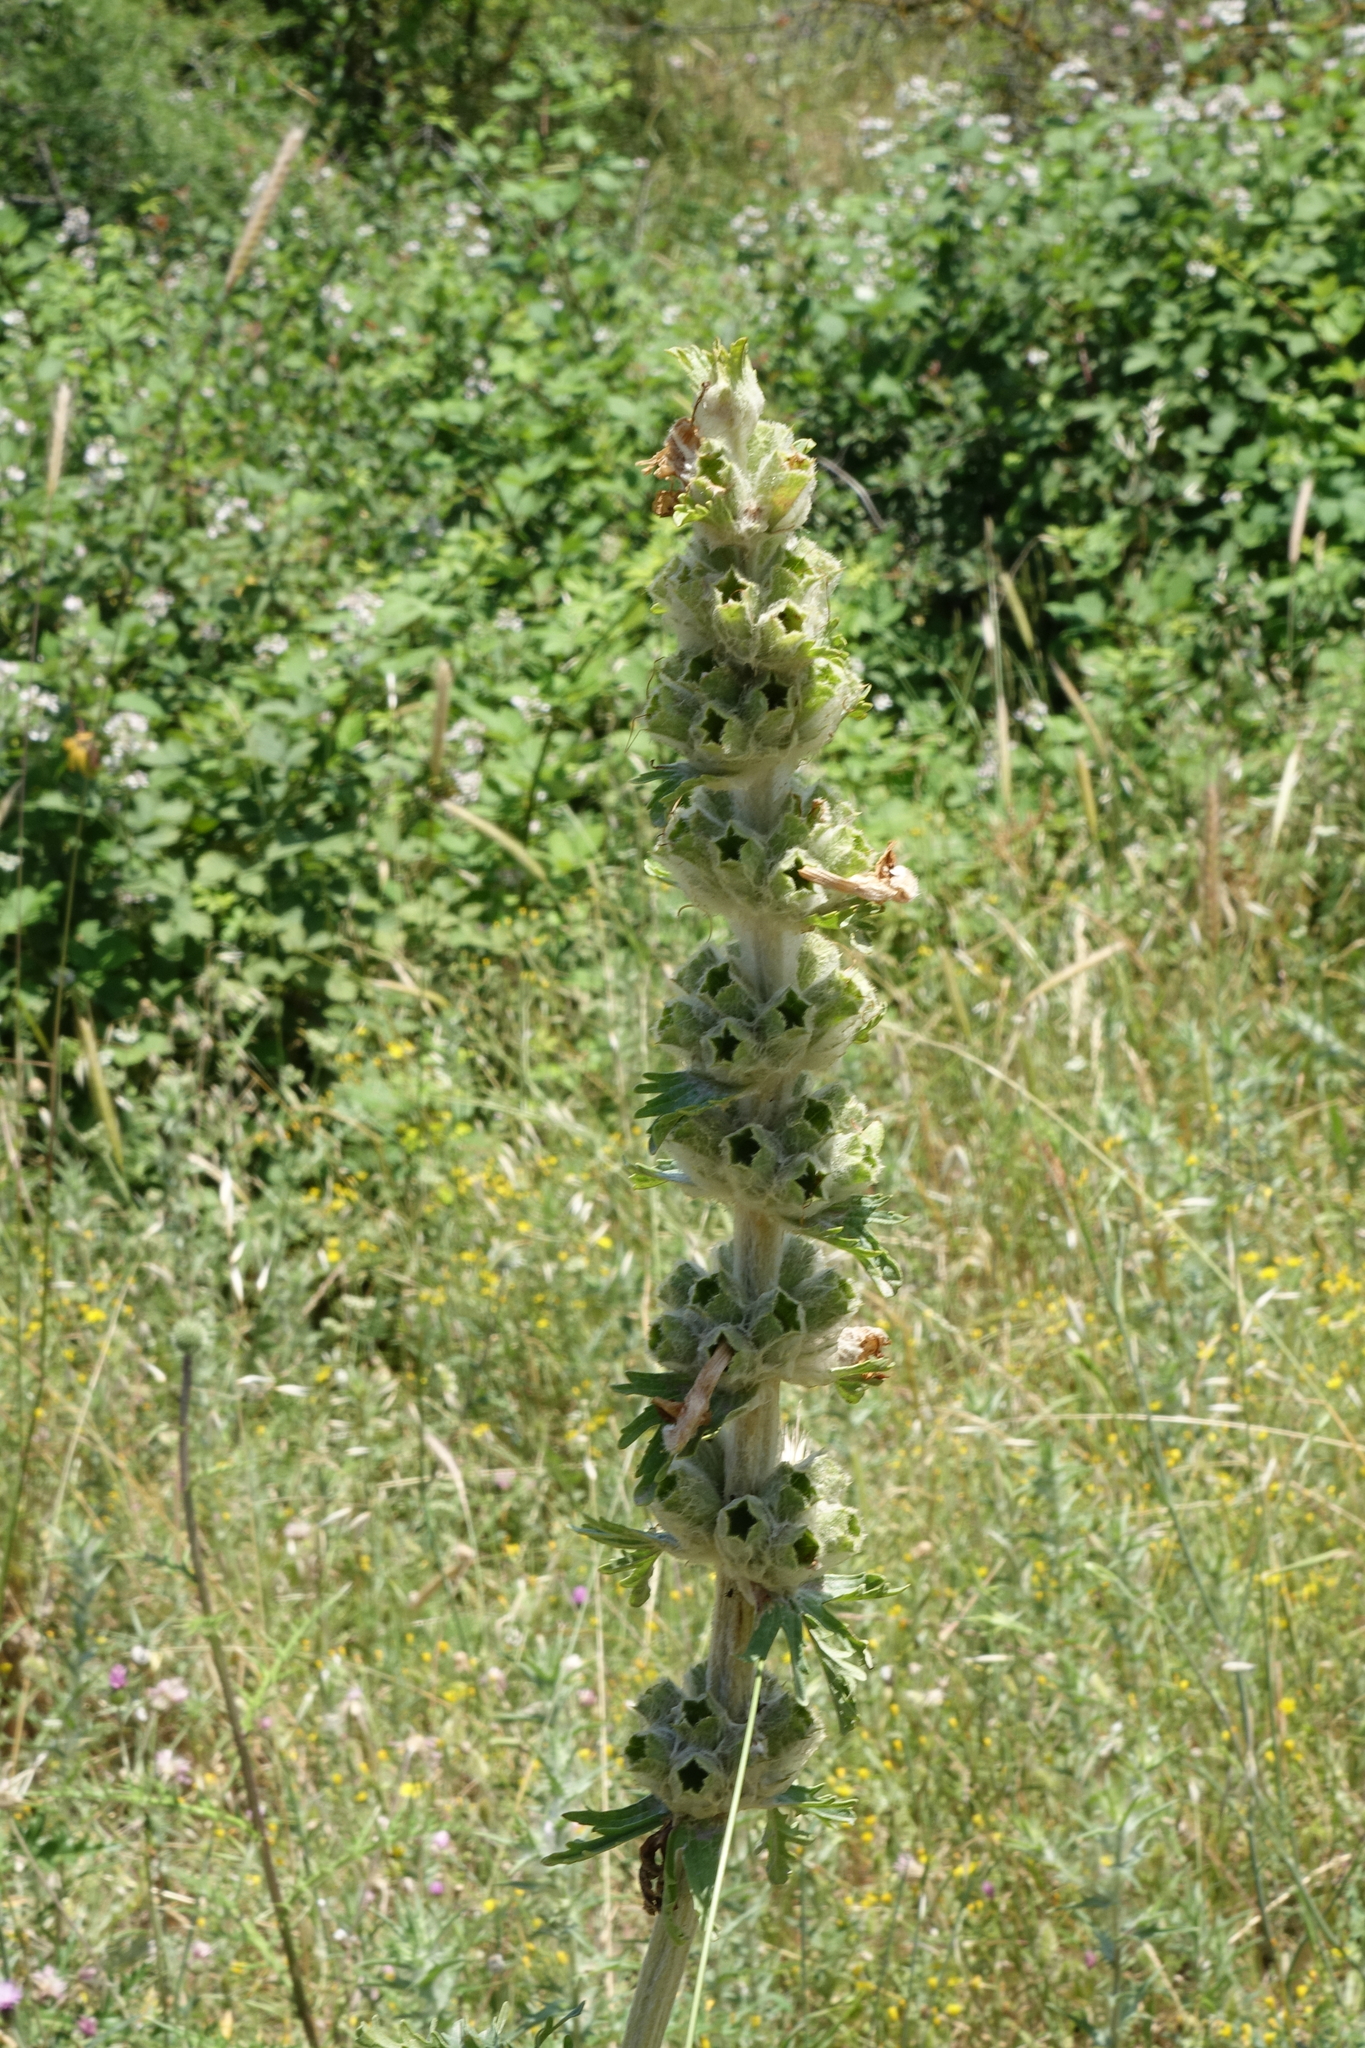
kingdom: Plantae
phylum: Tracheophyta
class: Magnoliopsida
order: Lamiales
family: Lamiaceae
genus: Phlomoides
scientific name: Phlomoides laciniata
